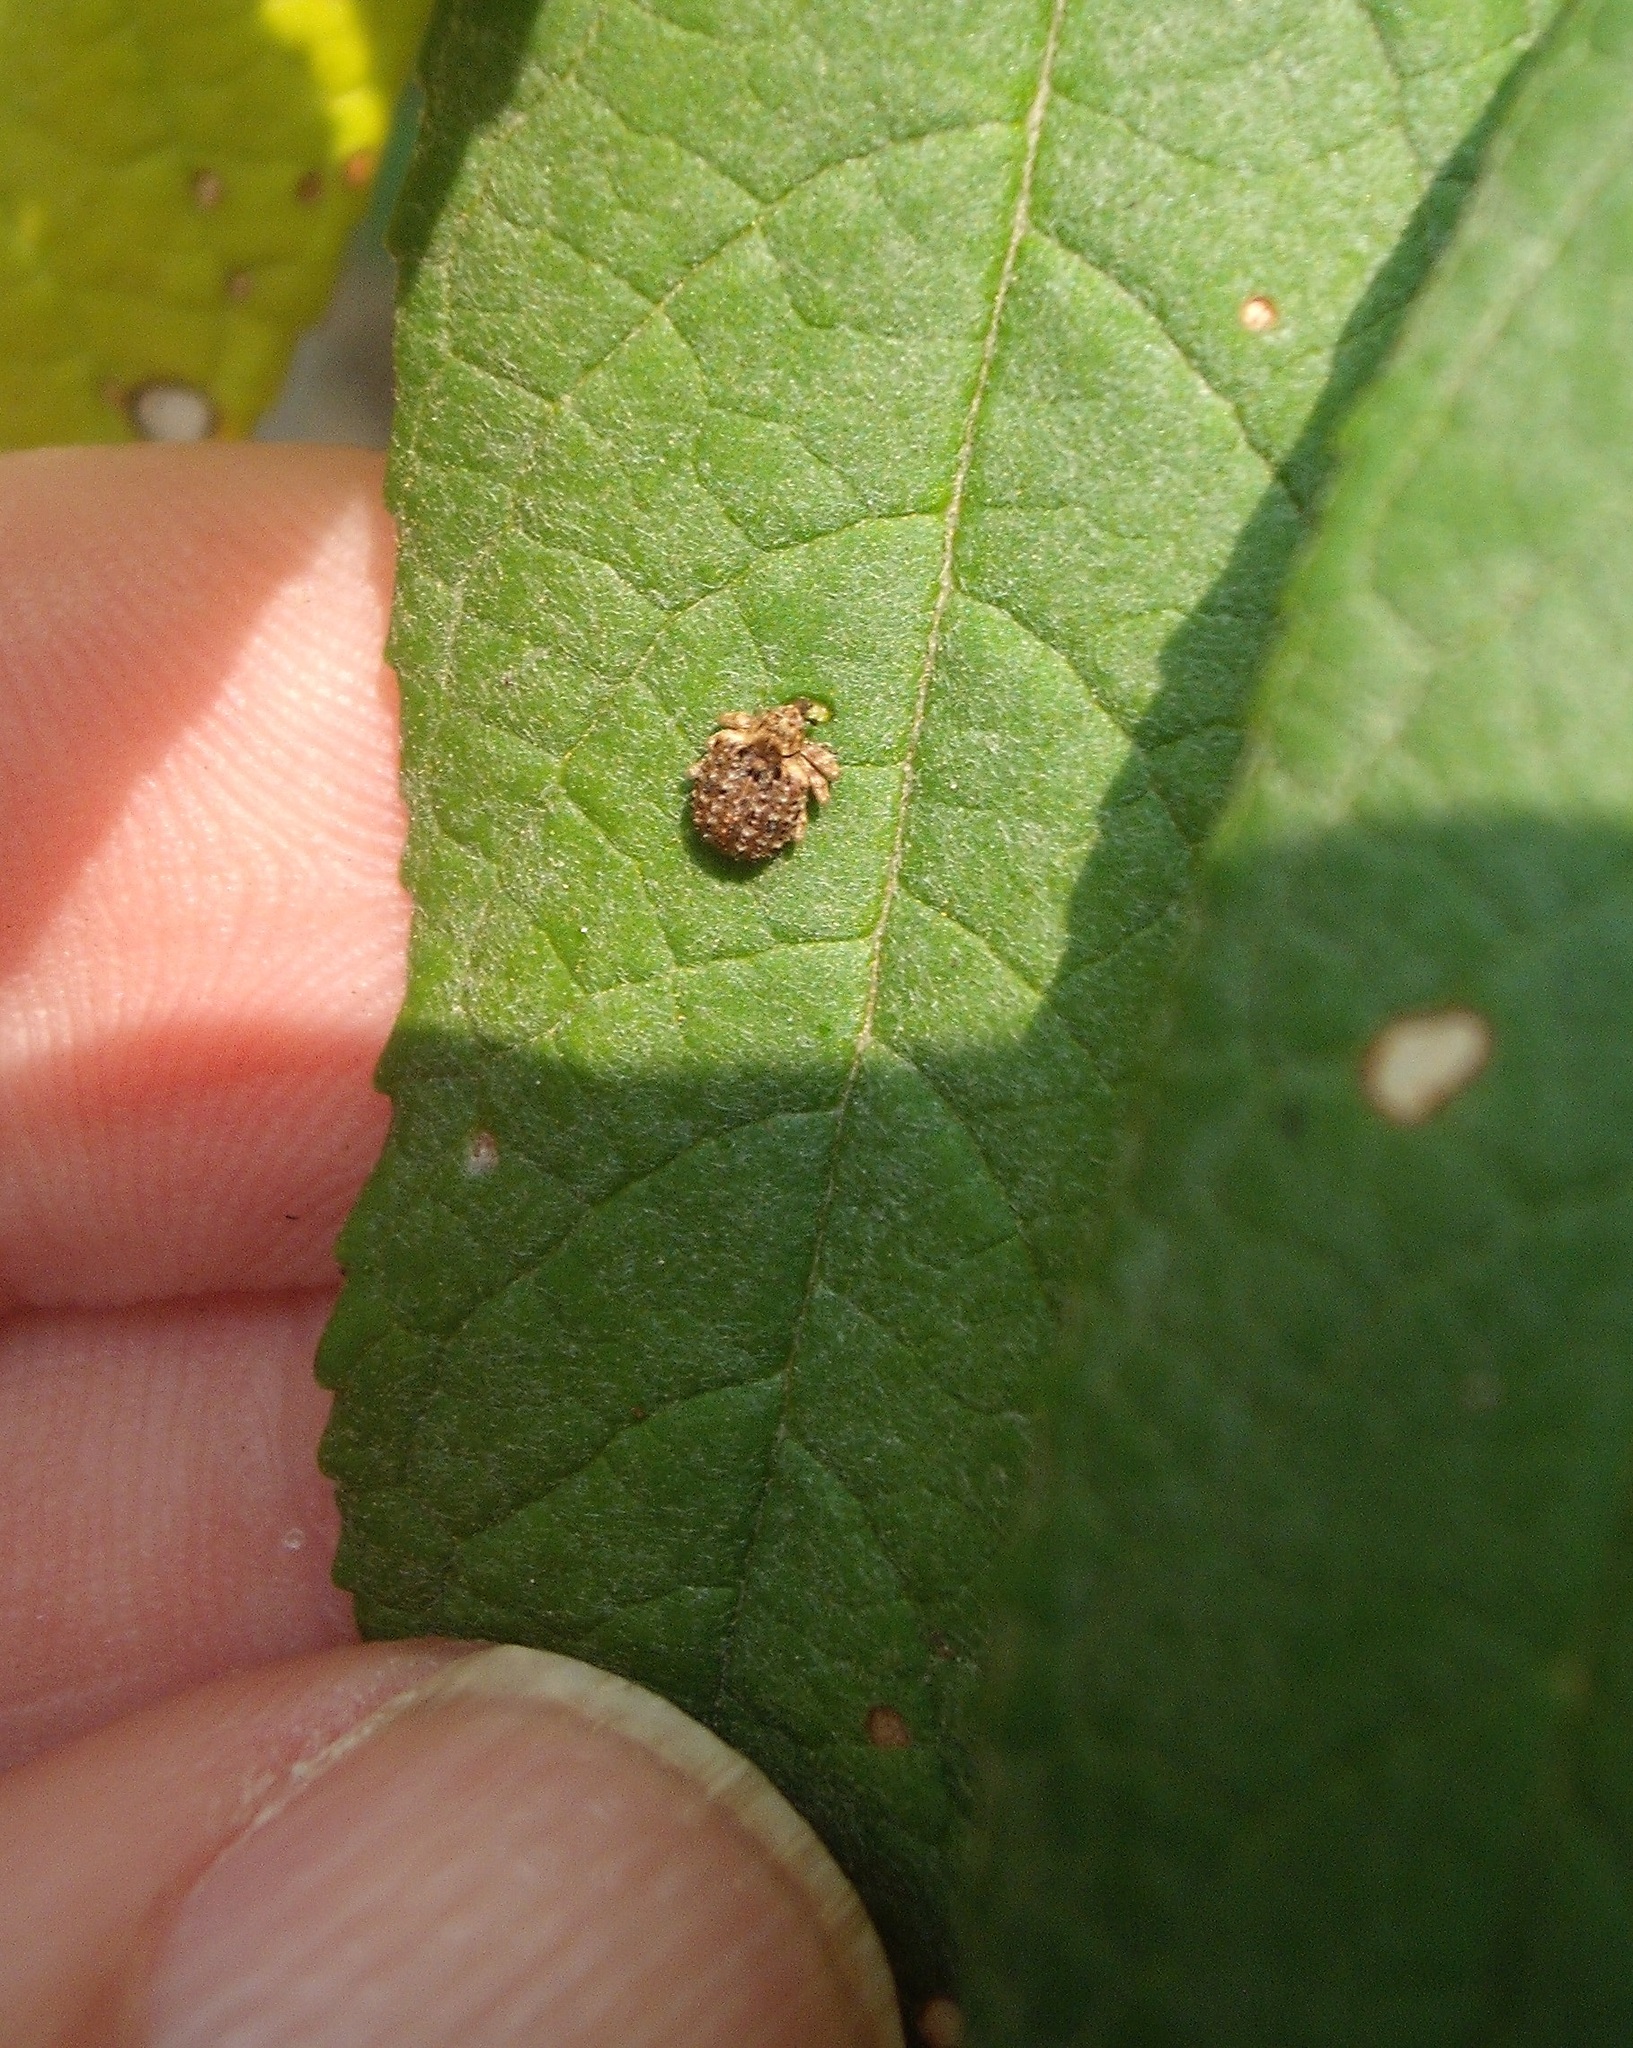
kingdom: Animalia
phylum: Arthropoda
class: Insecta
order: Coleoptera
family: Curculionidae
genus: Cleopus
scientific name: Cleopus japonicus
